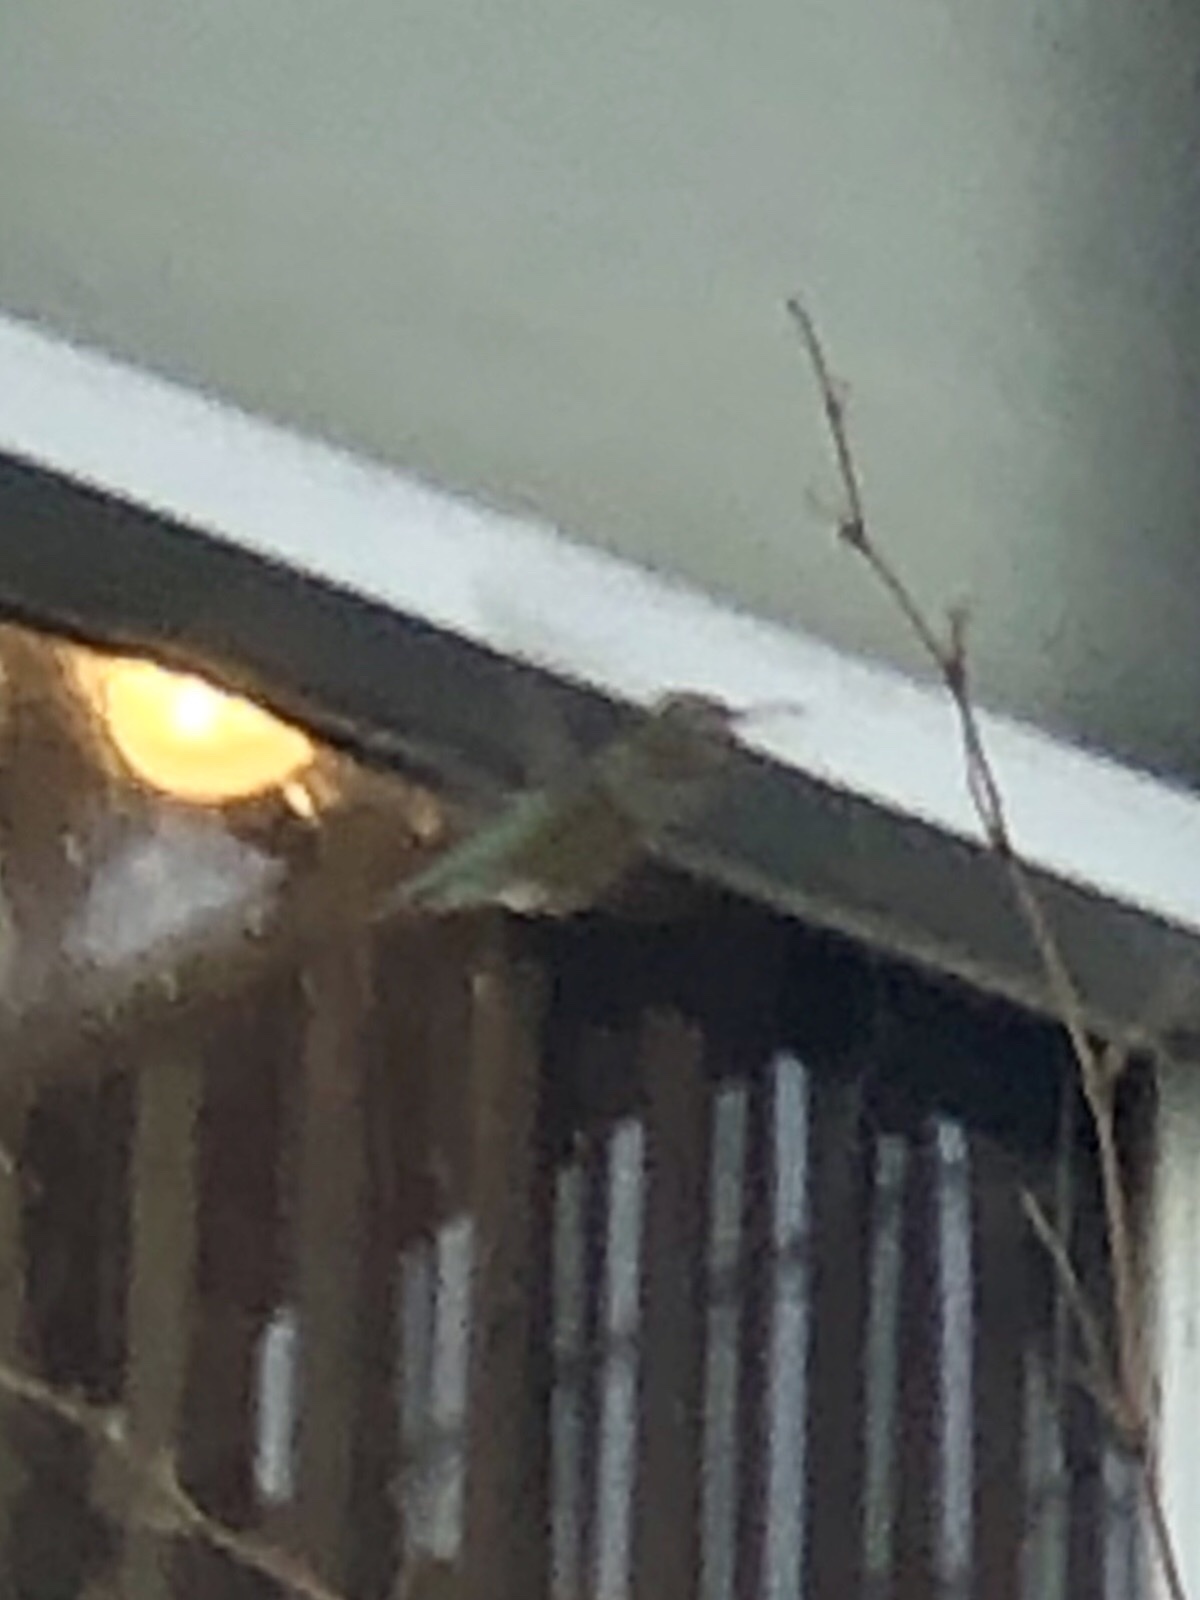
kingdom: Animalia
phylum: Chordata
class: Aves
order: Apodiformes
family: Trochilidae
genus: Calypte
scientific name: Calypte anna
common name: Anna's hummingbird
